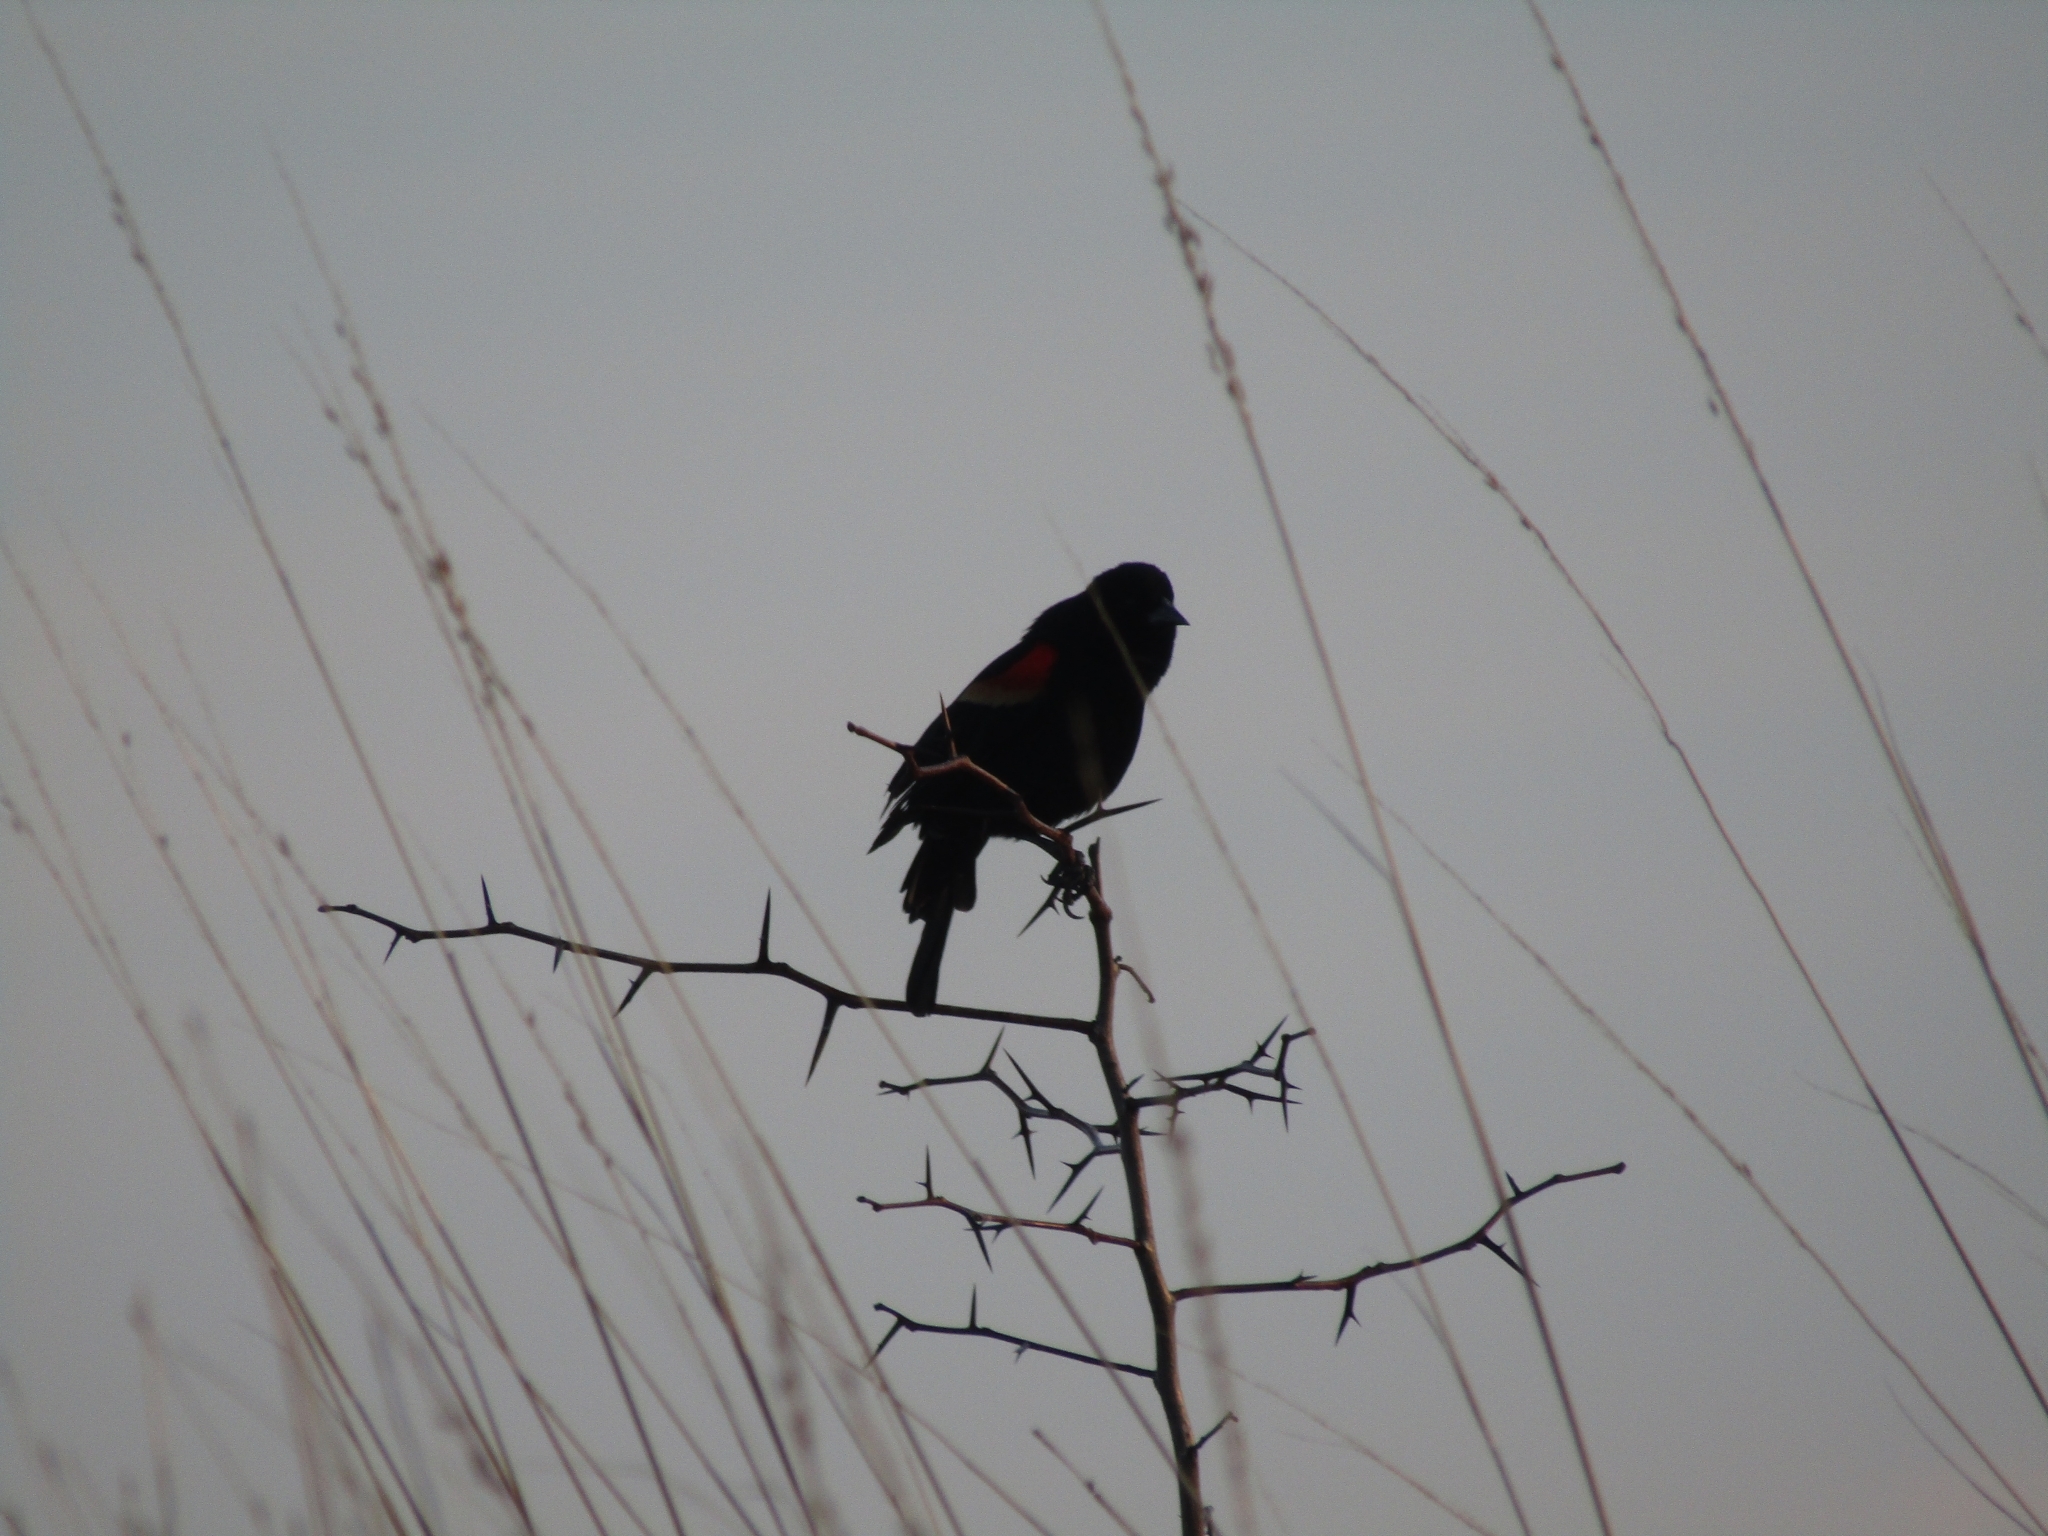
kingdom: Animalia
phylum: Chordata
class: Aves
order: Passeriformes
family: Icteridae
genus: Agelaius
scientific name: Agelaius phoeniceus
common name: Red-winged blackbird
